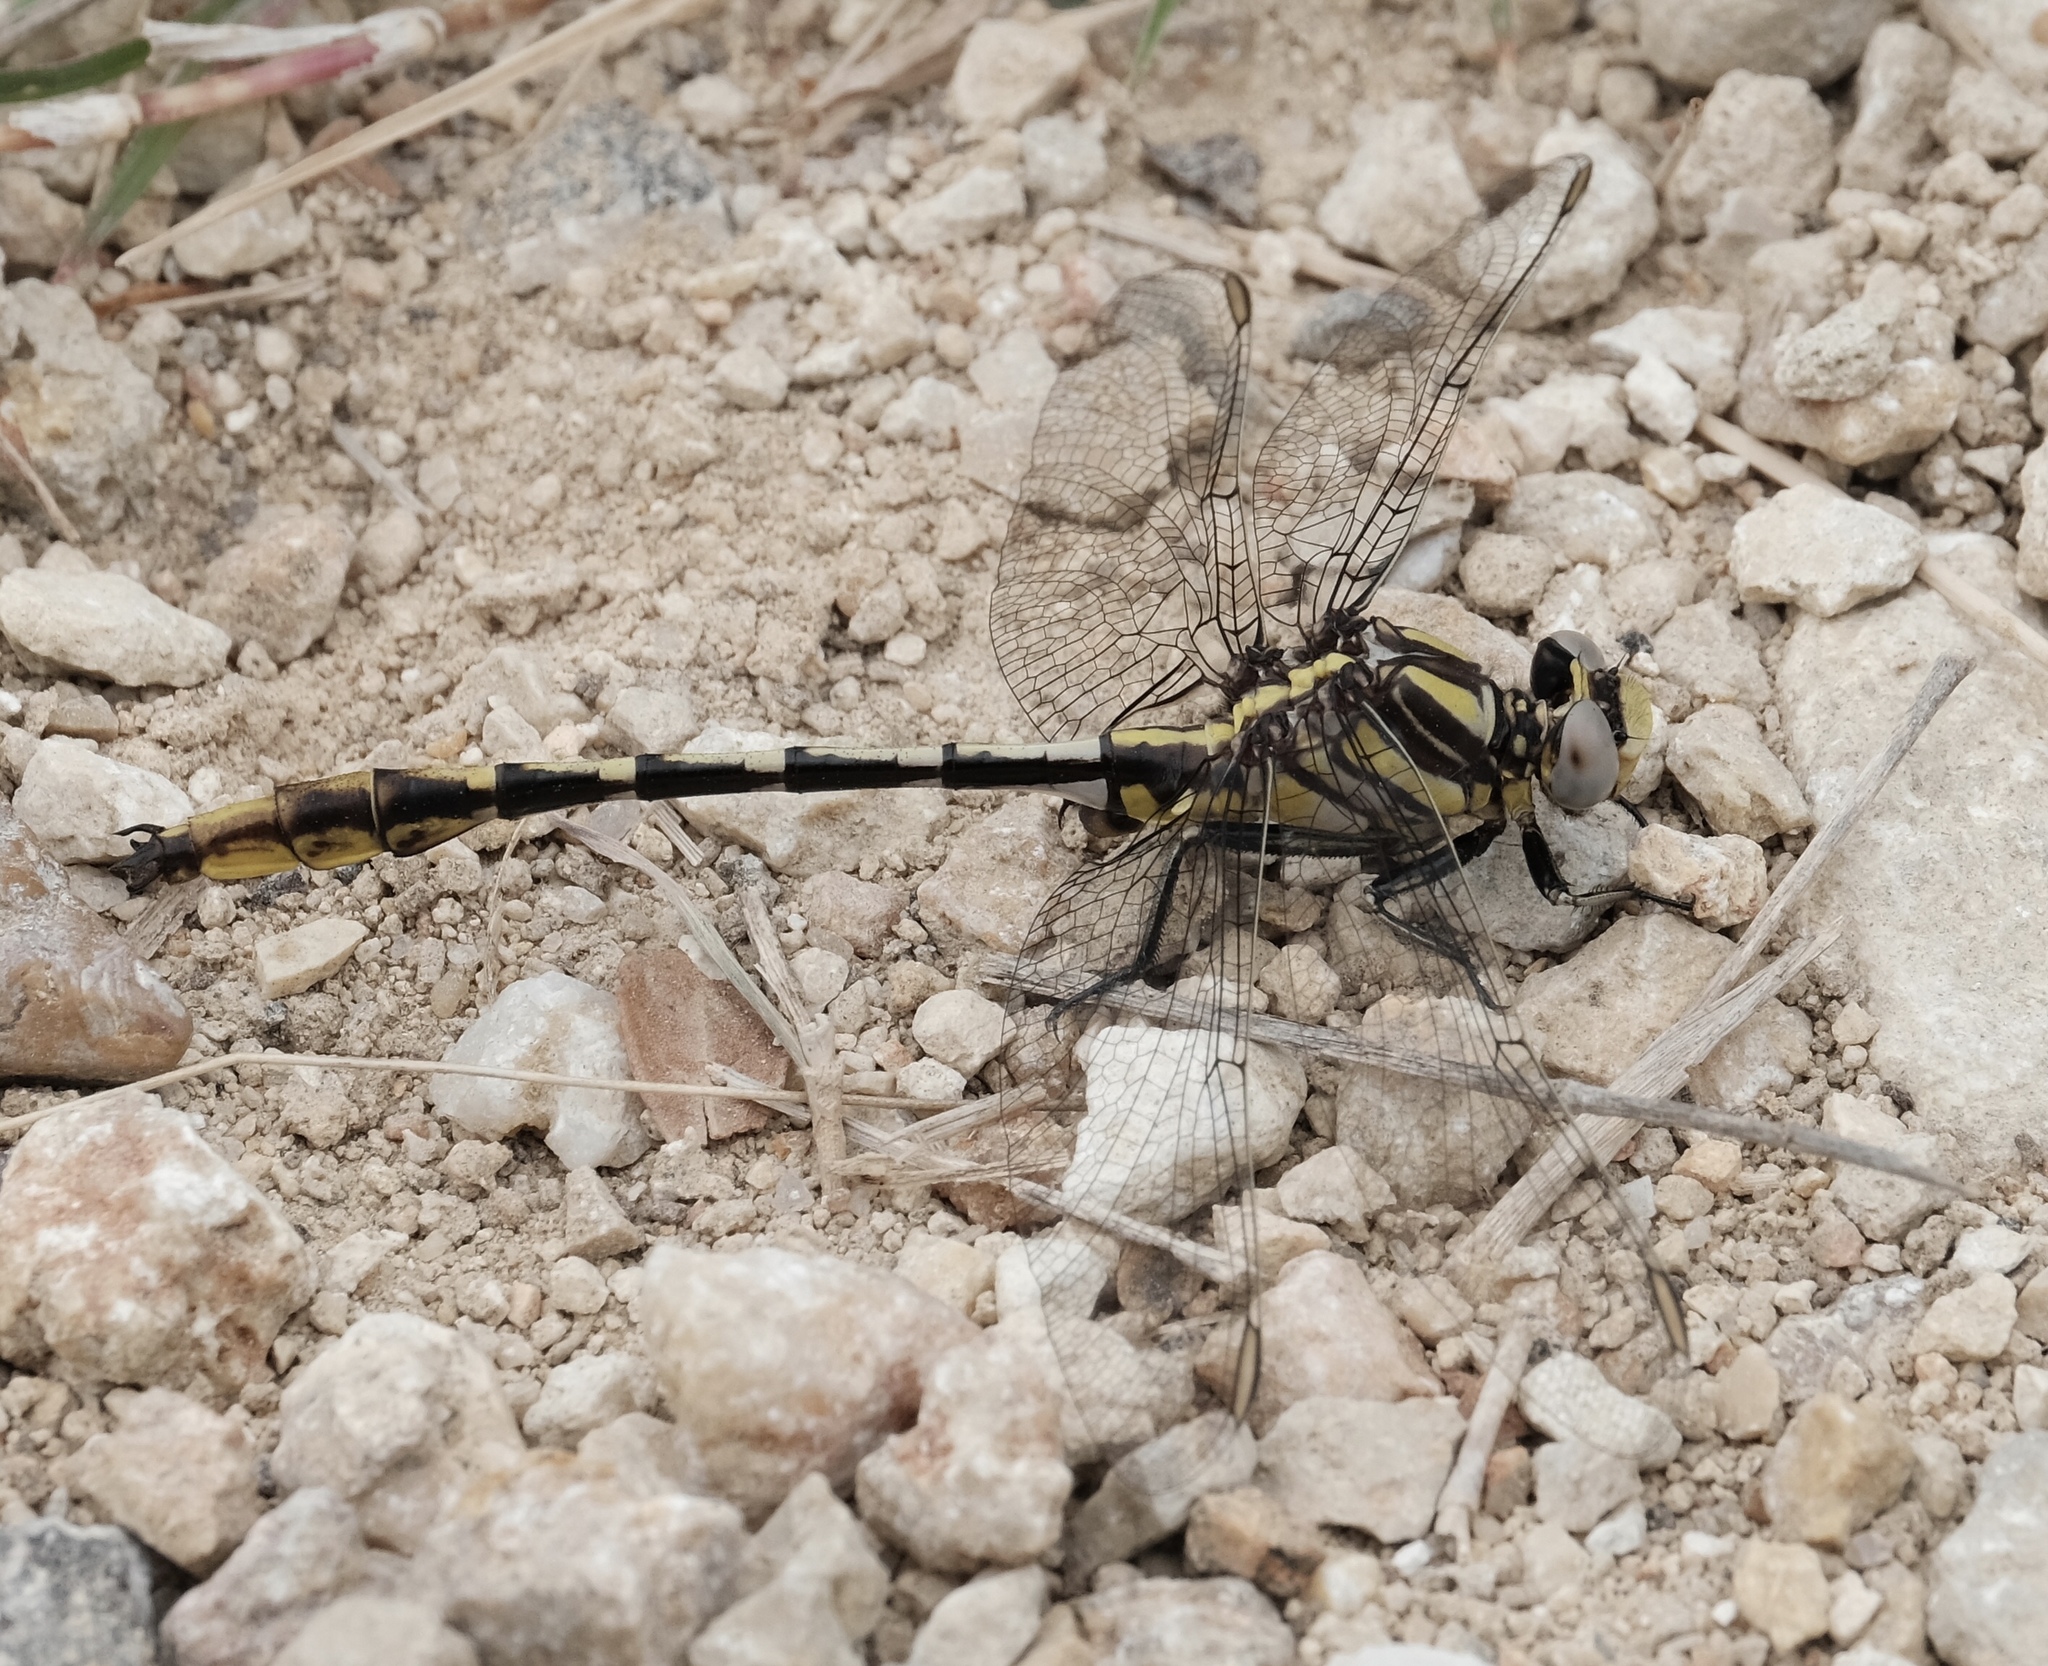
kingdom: Animalia
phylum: Arthropoda
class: Insecta
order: Odonata
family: Gomphidae
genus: Phanogomphus
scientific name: Phanogomphus militaris
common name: Sulphur-tipped clubtail
